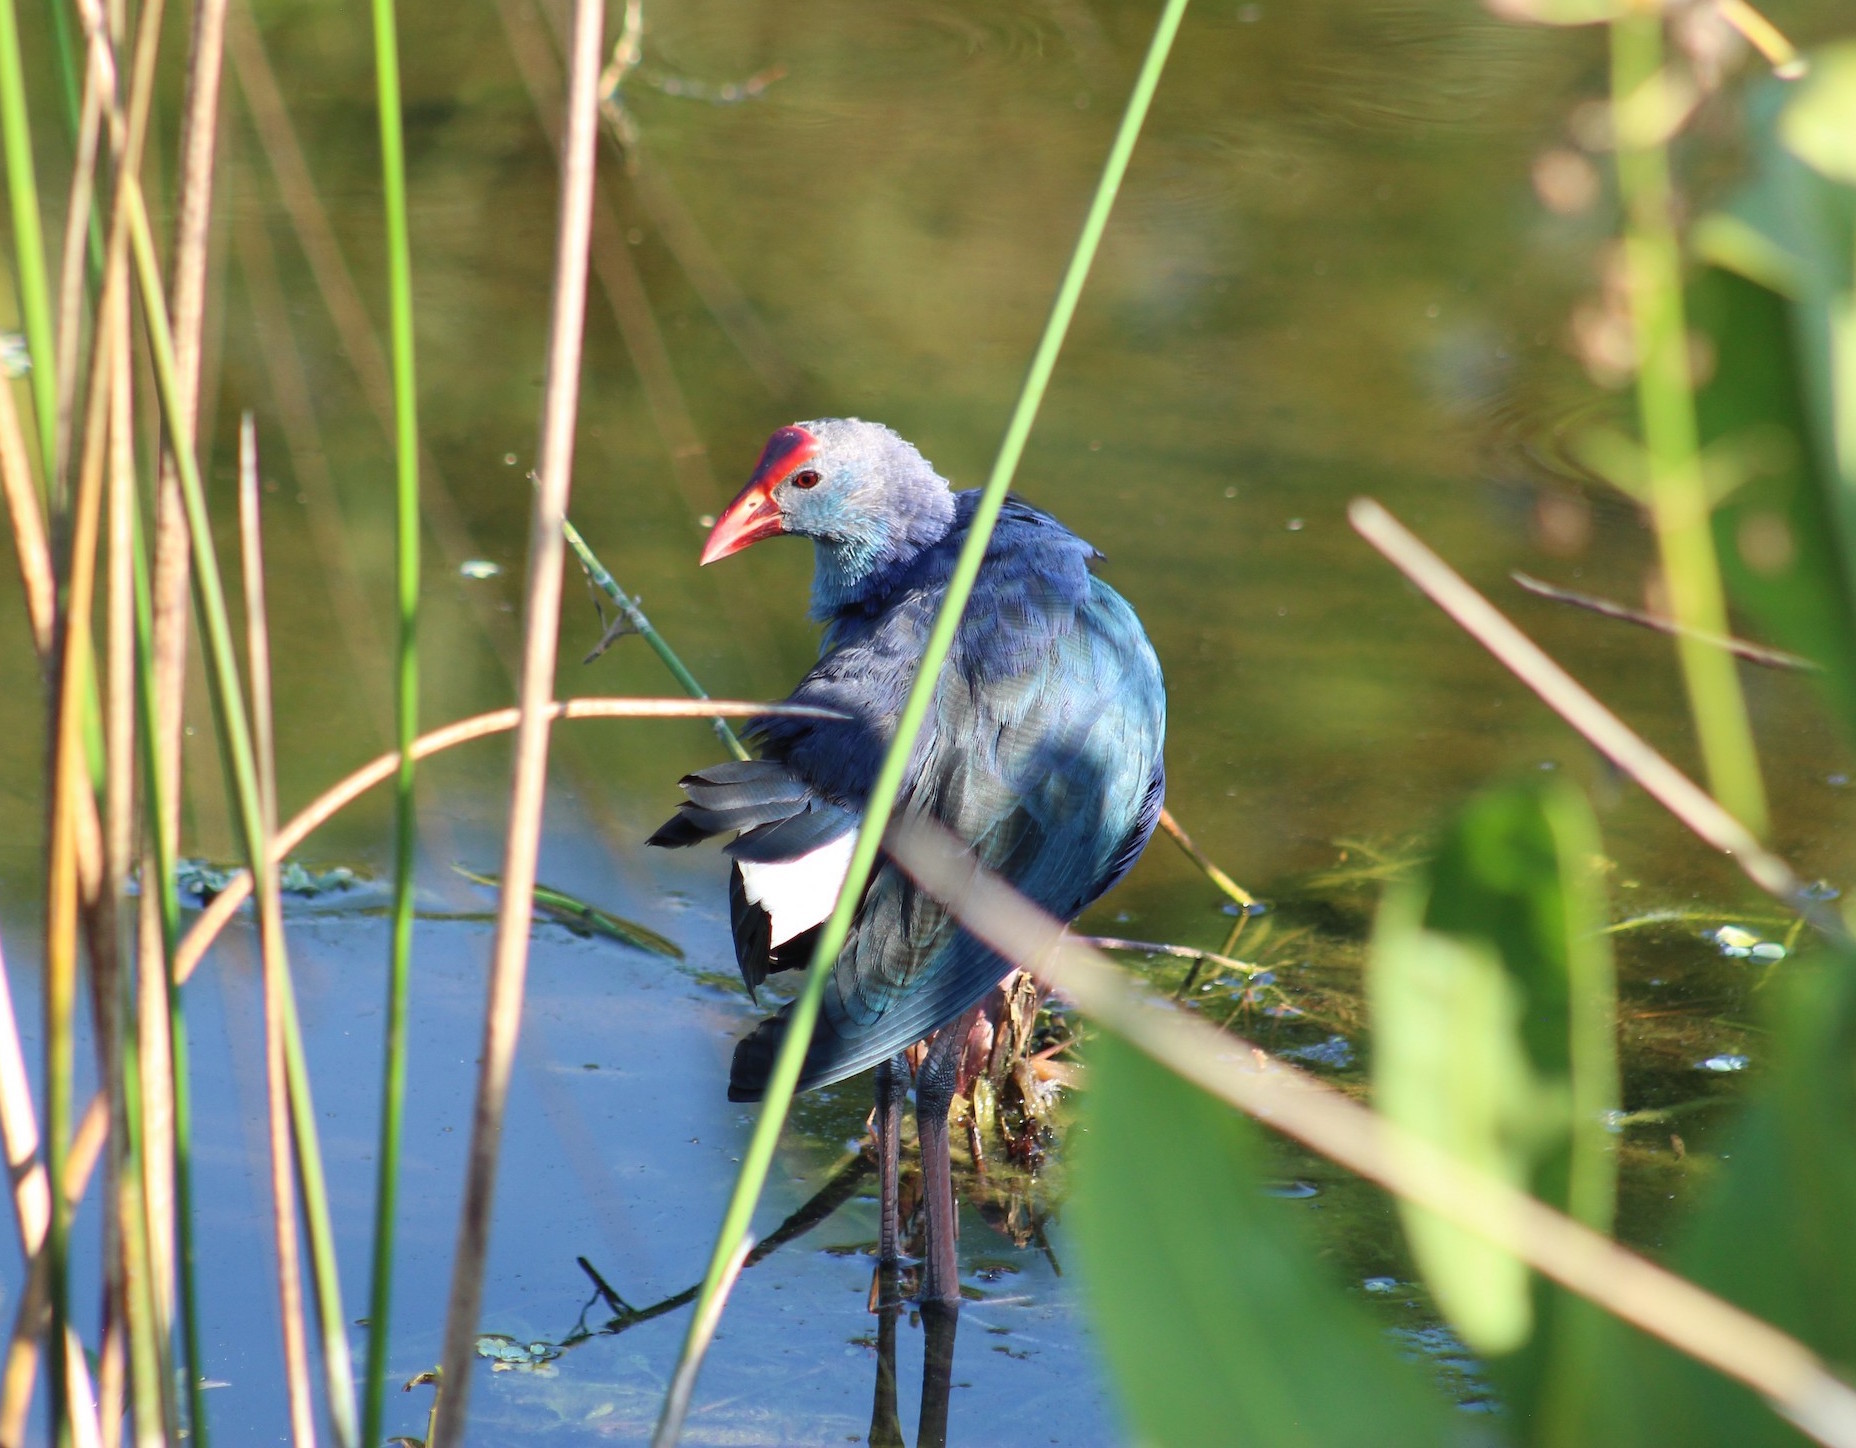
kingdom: Animalia
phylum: Chordata
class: Aves
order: Gruiformes
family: Rallidae
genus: Porphyrio
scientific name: Porphyrio porphyrio
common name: Purple swamphen
